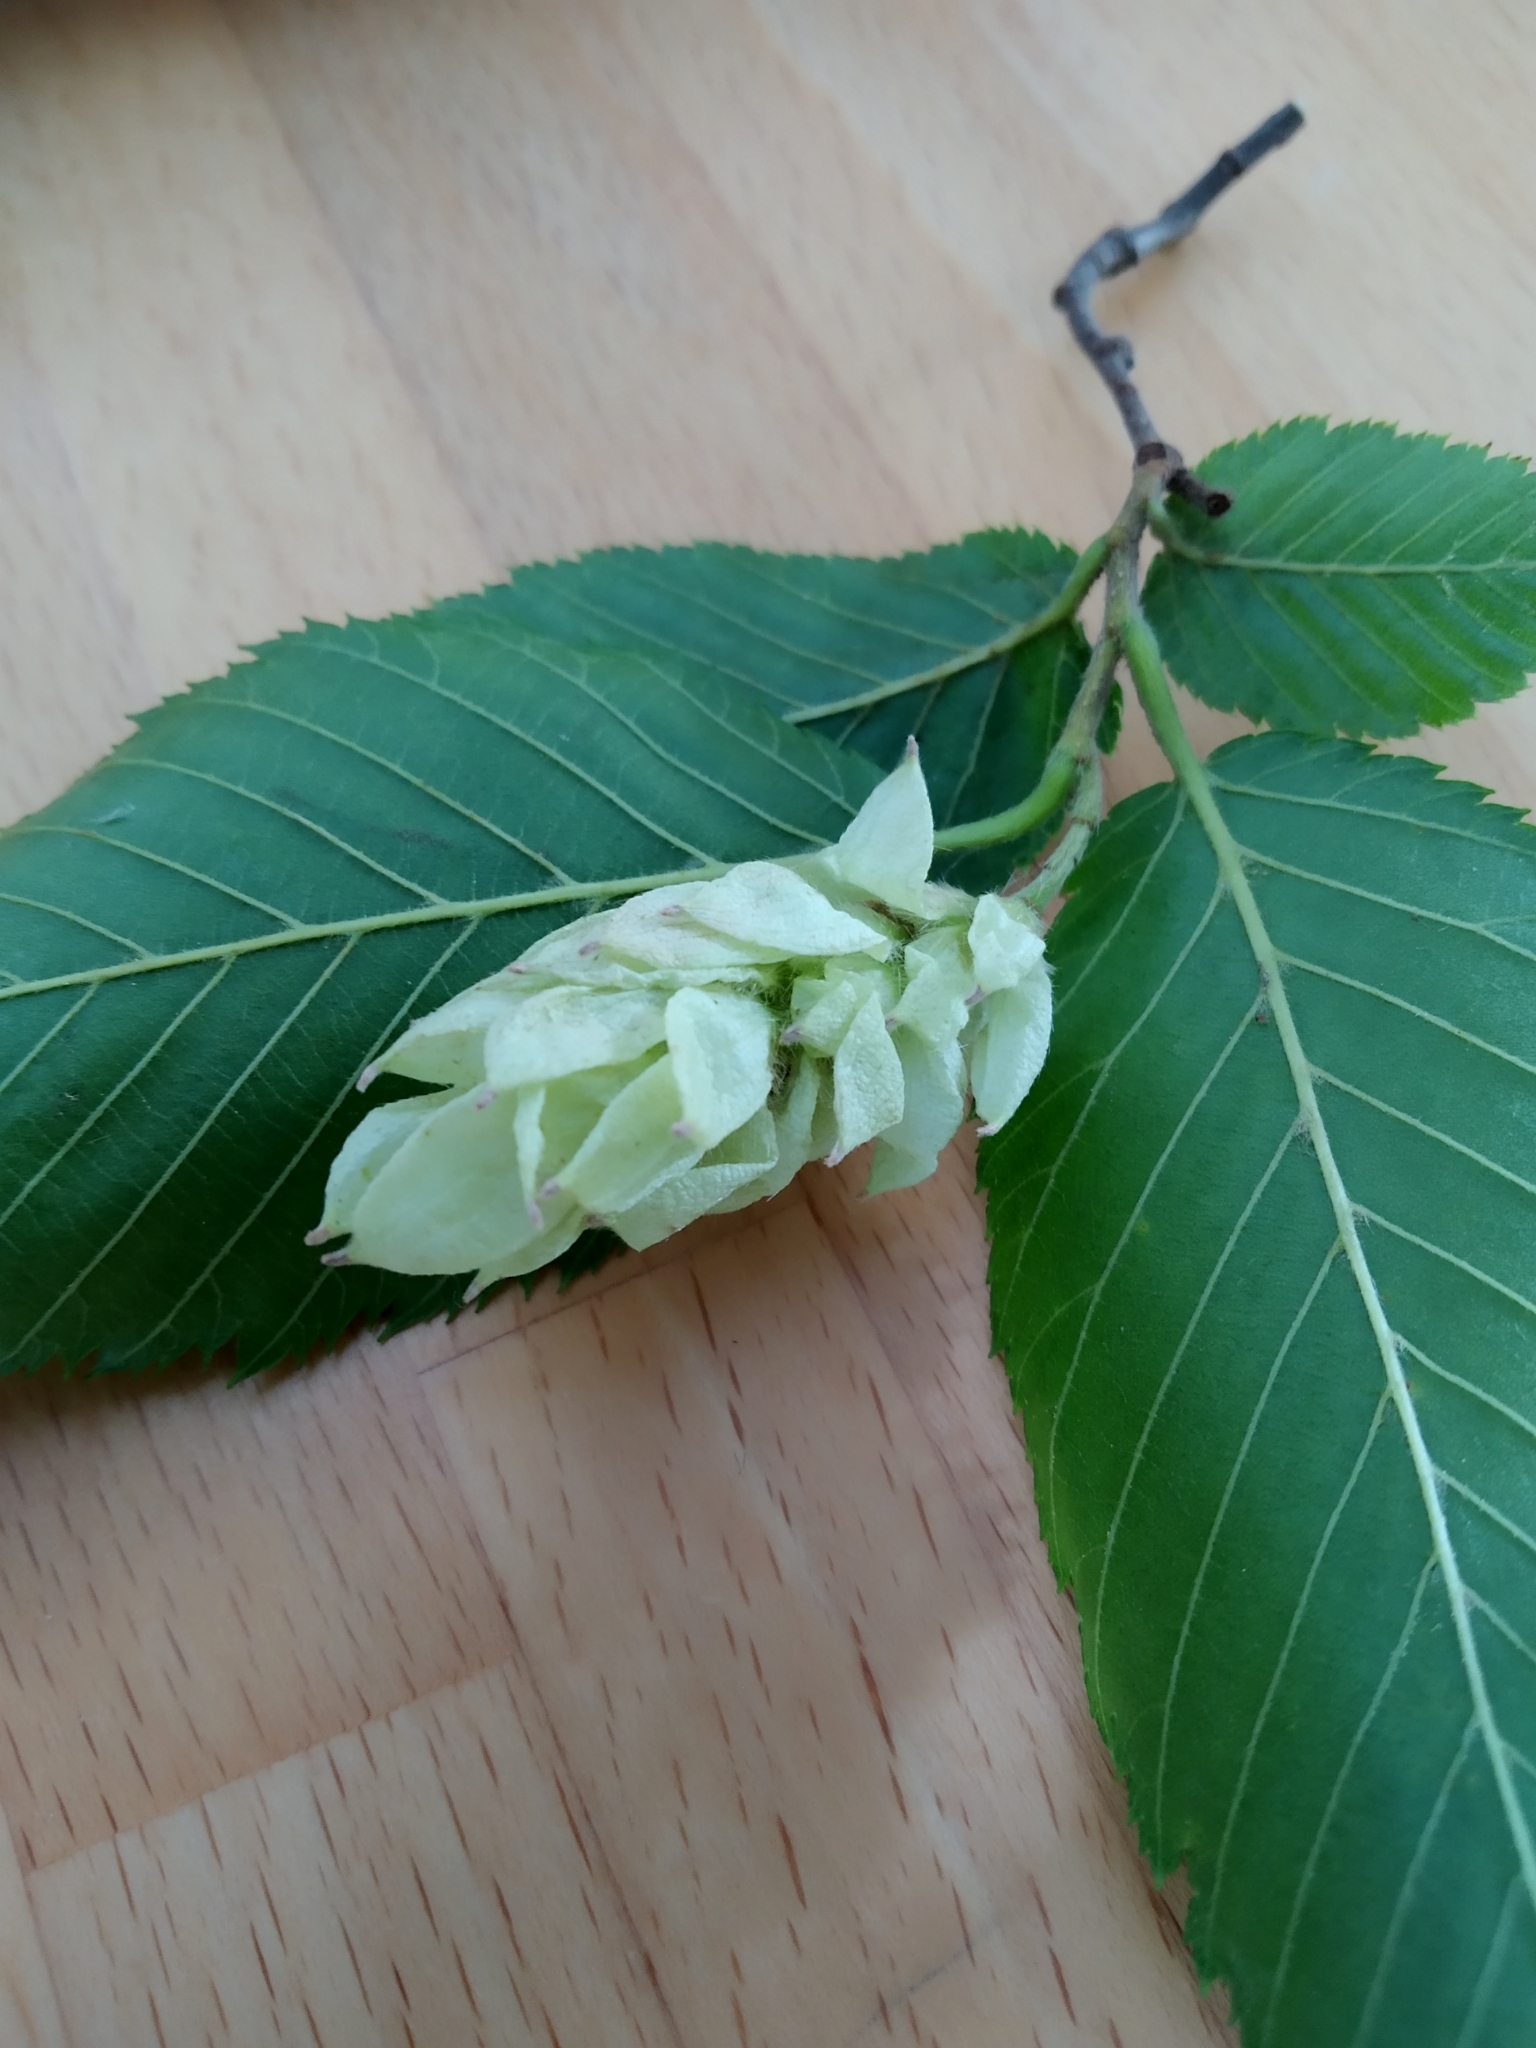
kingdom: Plantae
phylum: Tracheophyta
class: Magnoliopsida
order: Fagales
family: Betulaceae
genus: Ostrya
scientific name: Ostrya carpinifolia
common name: European hop-hornbeam
